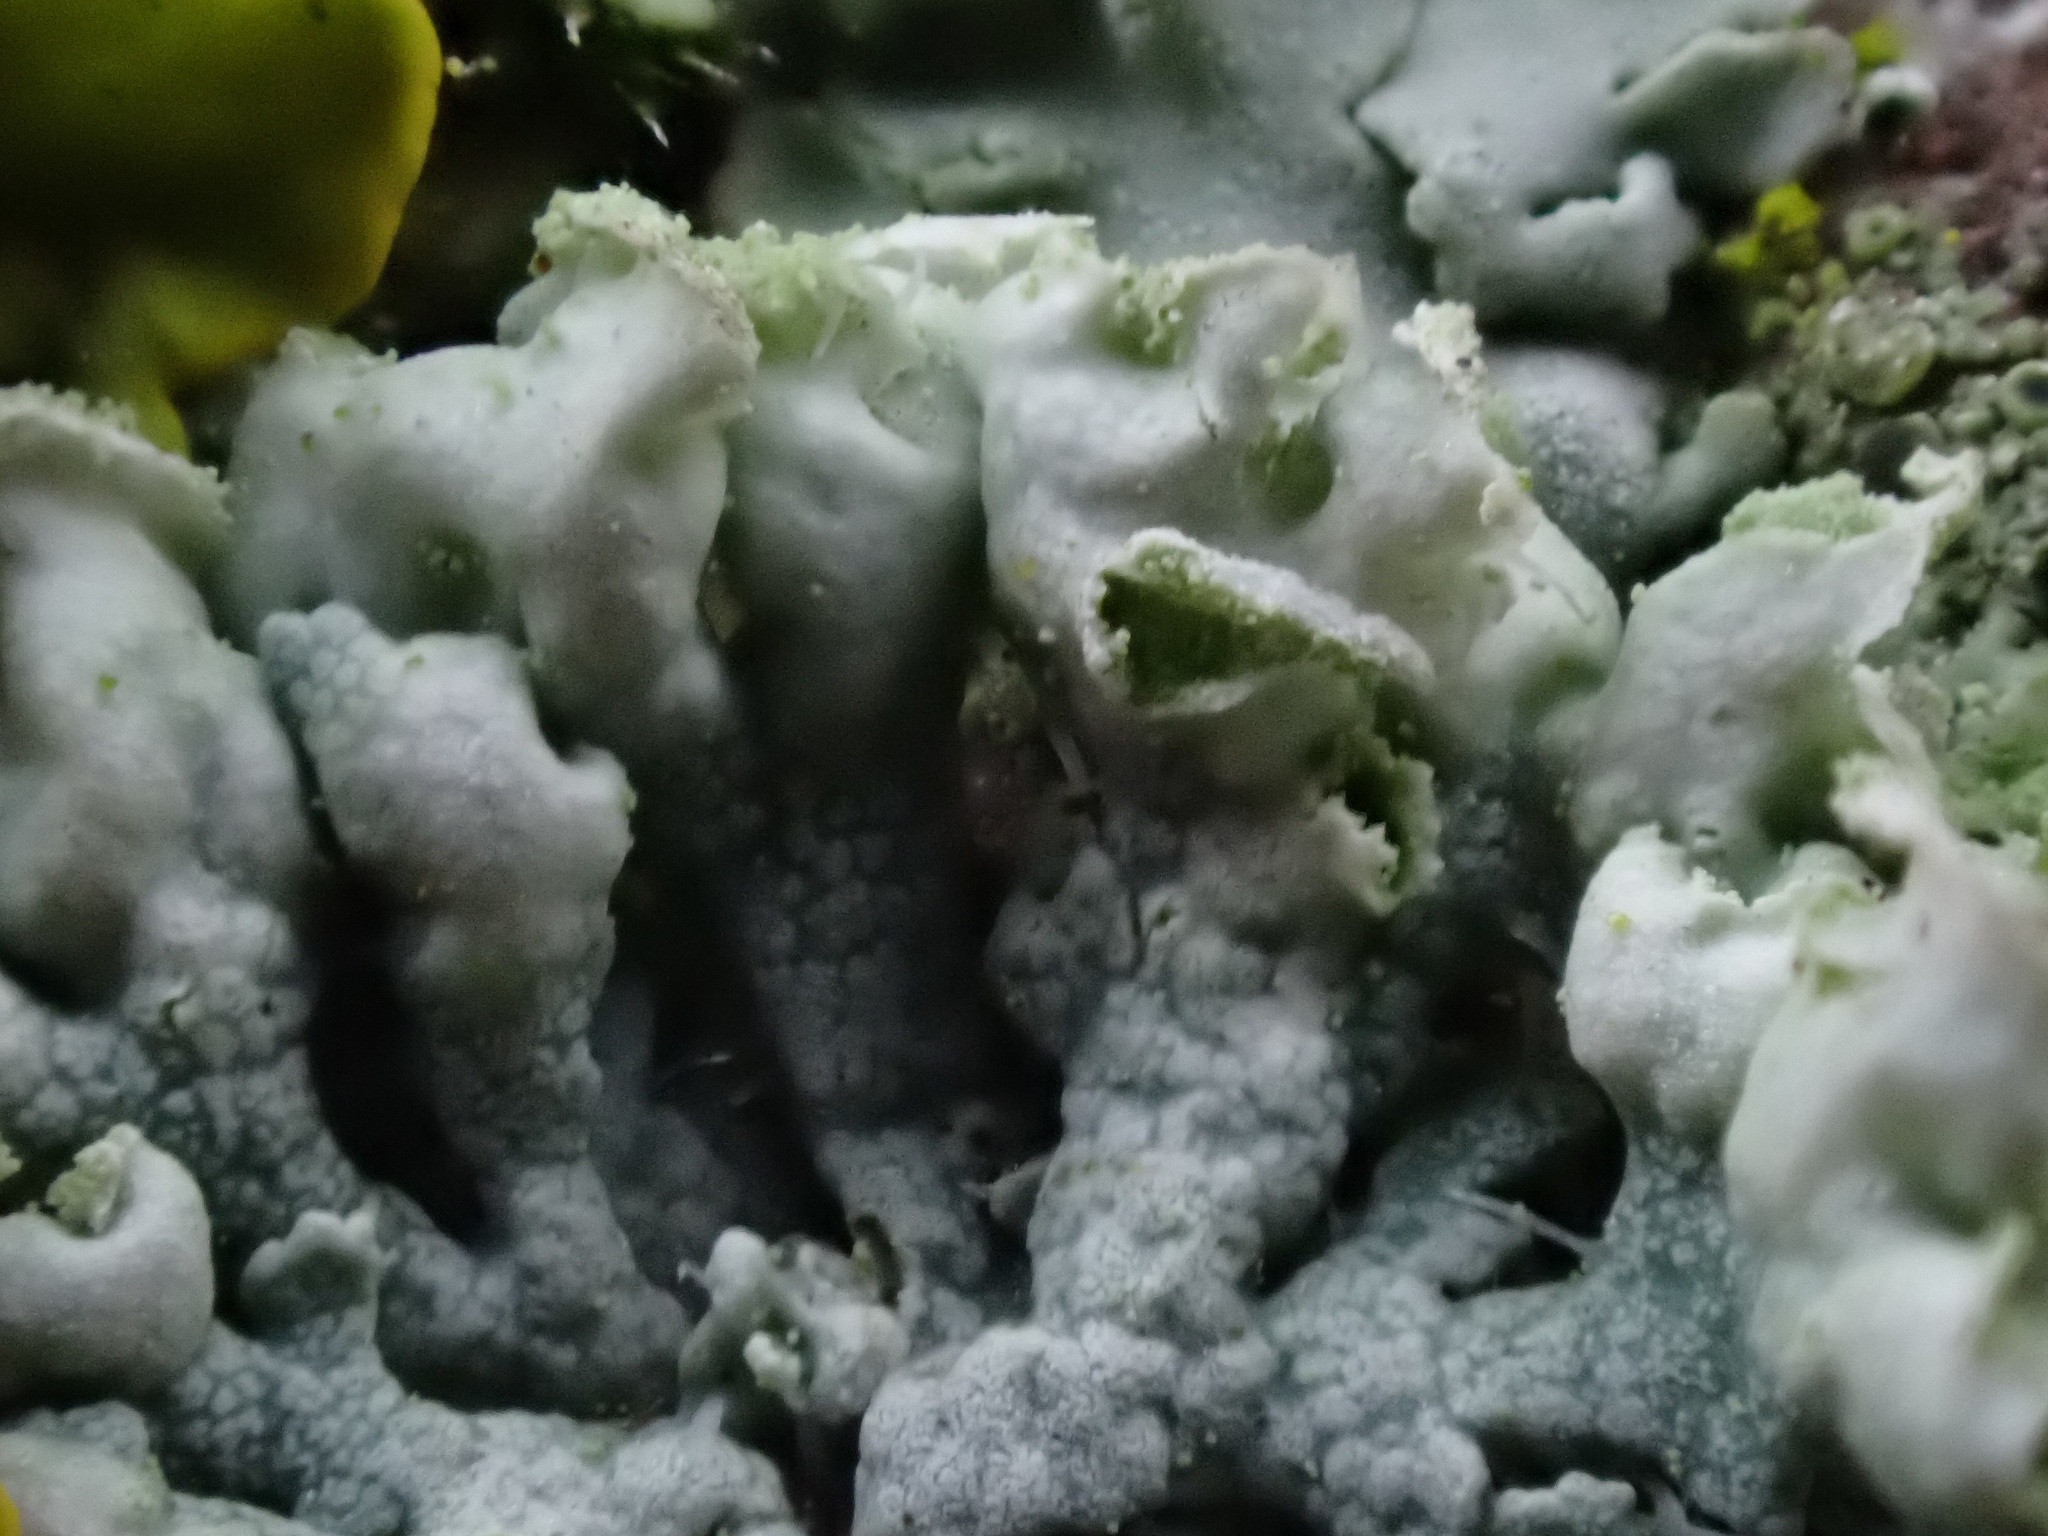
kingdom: Fungi
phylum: Ascomycota
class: Lecanoromycetes
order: Caliciales
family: Physciaceae
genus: Physcia
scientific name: Physcia adscendens
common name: Hooded rosette lichen
